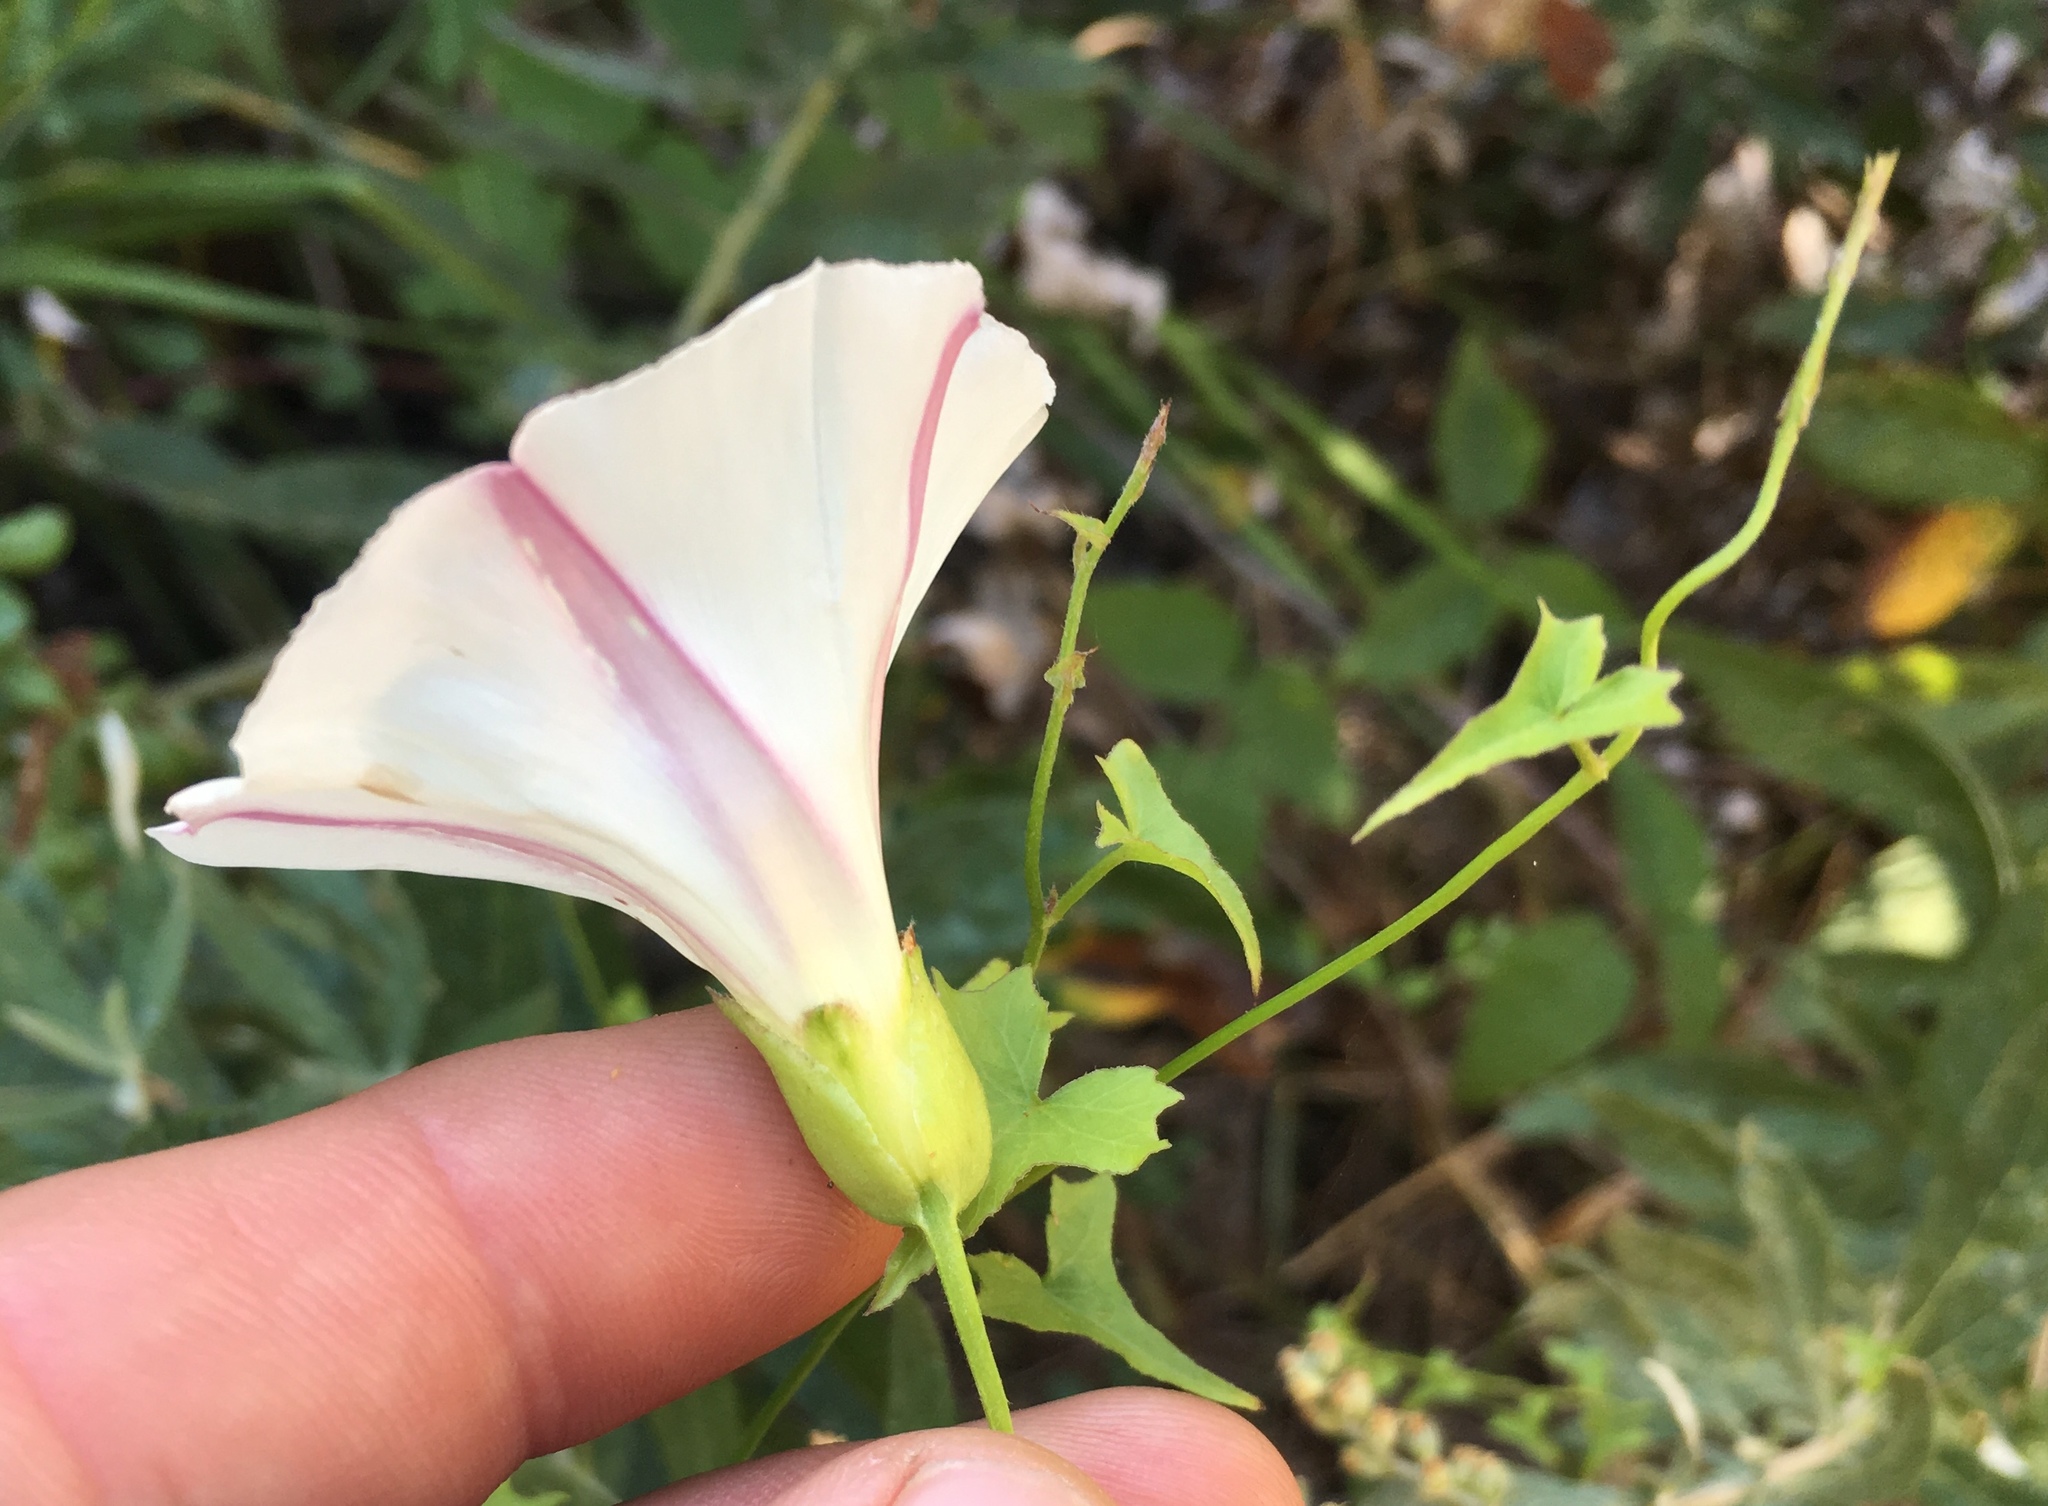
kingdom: Plantae
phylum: Tracheophyta
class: Magnoliopsida
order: Solanales
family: Convolvulaceae
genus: Calystegia
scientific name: Calystegia macrostegia
